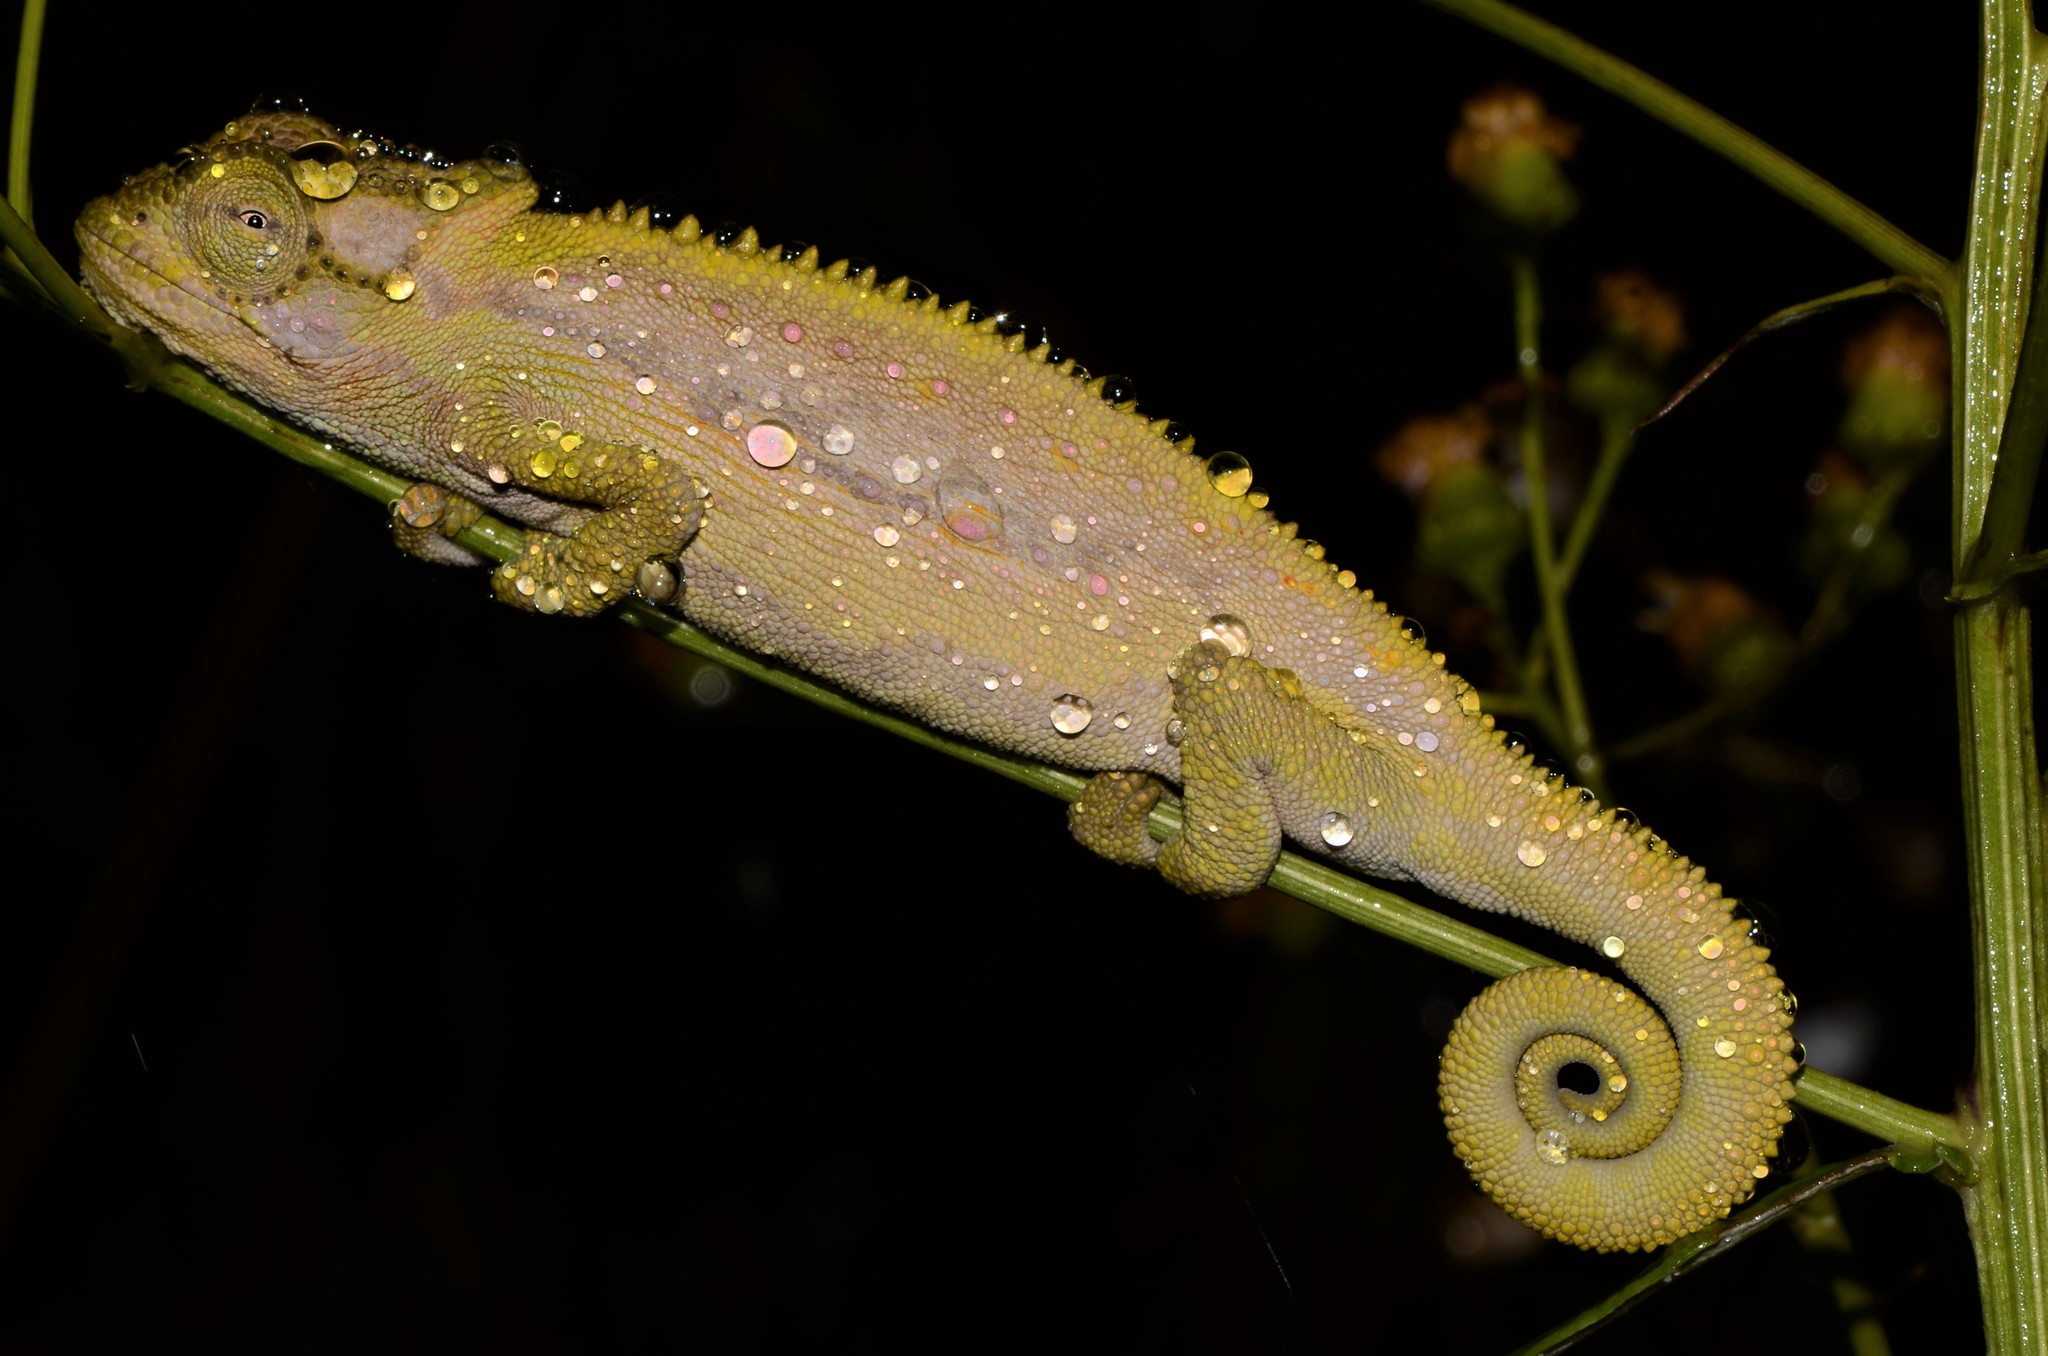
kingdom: Animalia
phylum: Chordata
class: Squamata
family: Chamaeleonidae
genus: Bradypodion
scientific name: Bradypodion pumilum
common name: Cape dwarf chameleon
